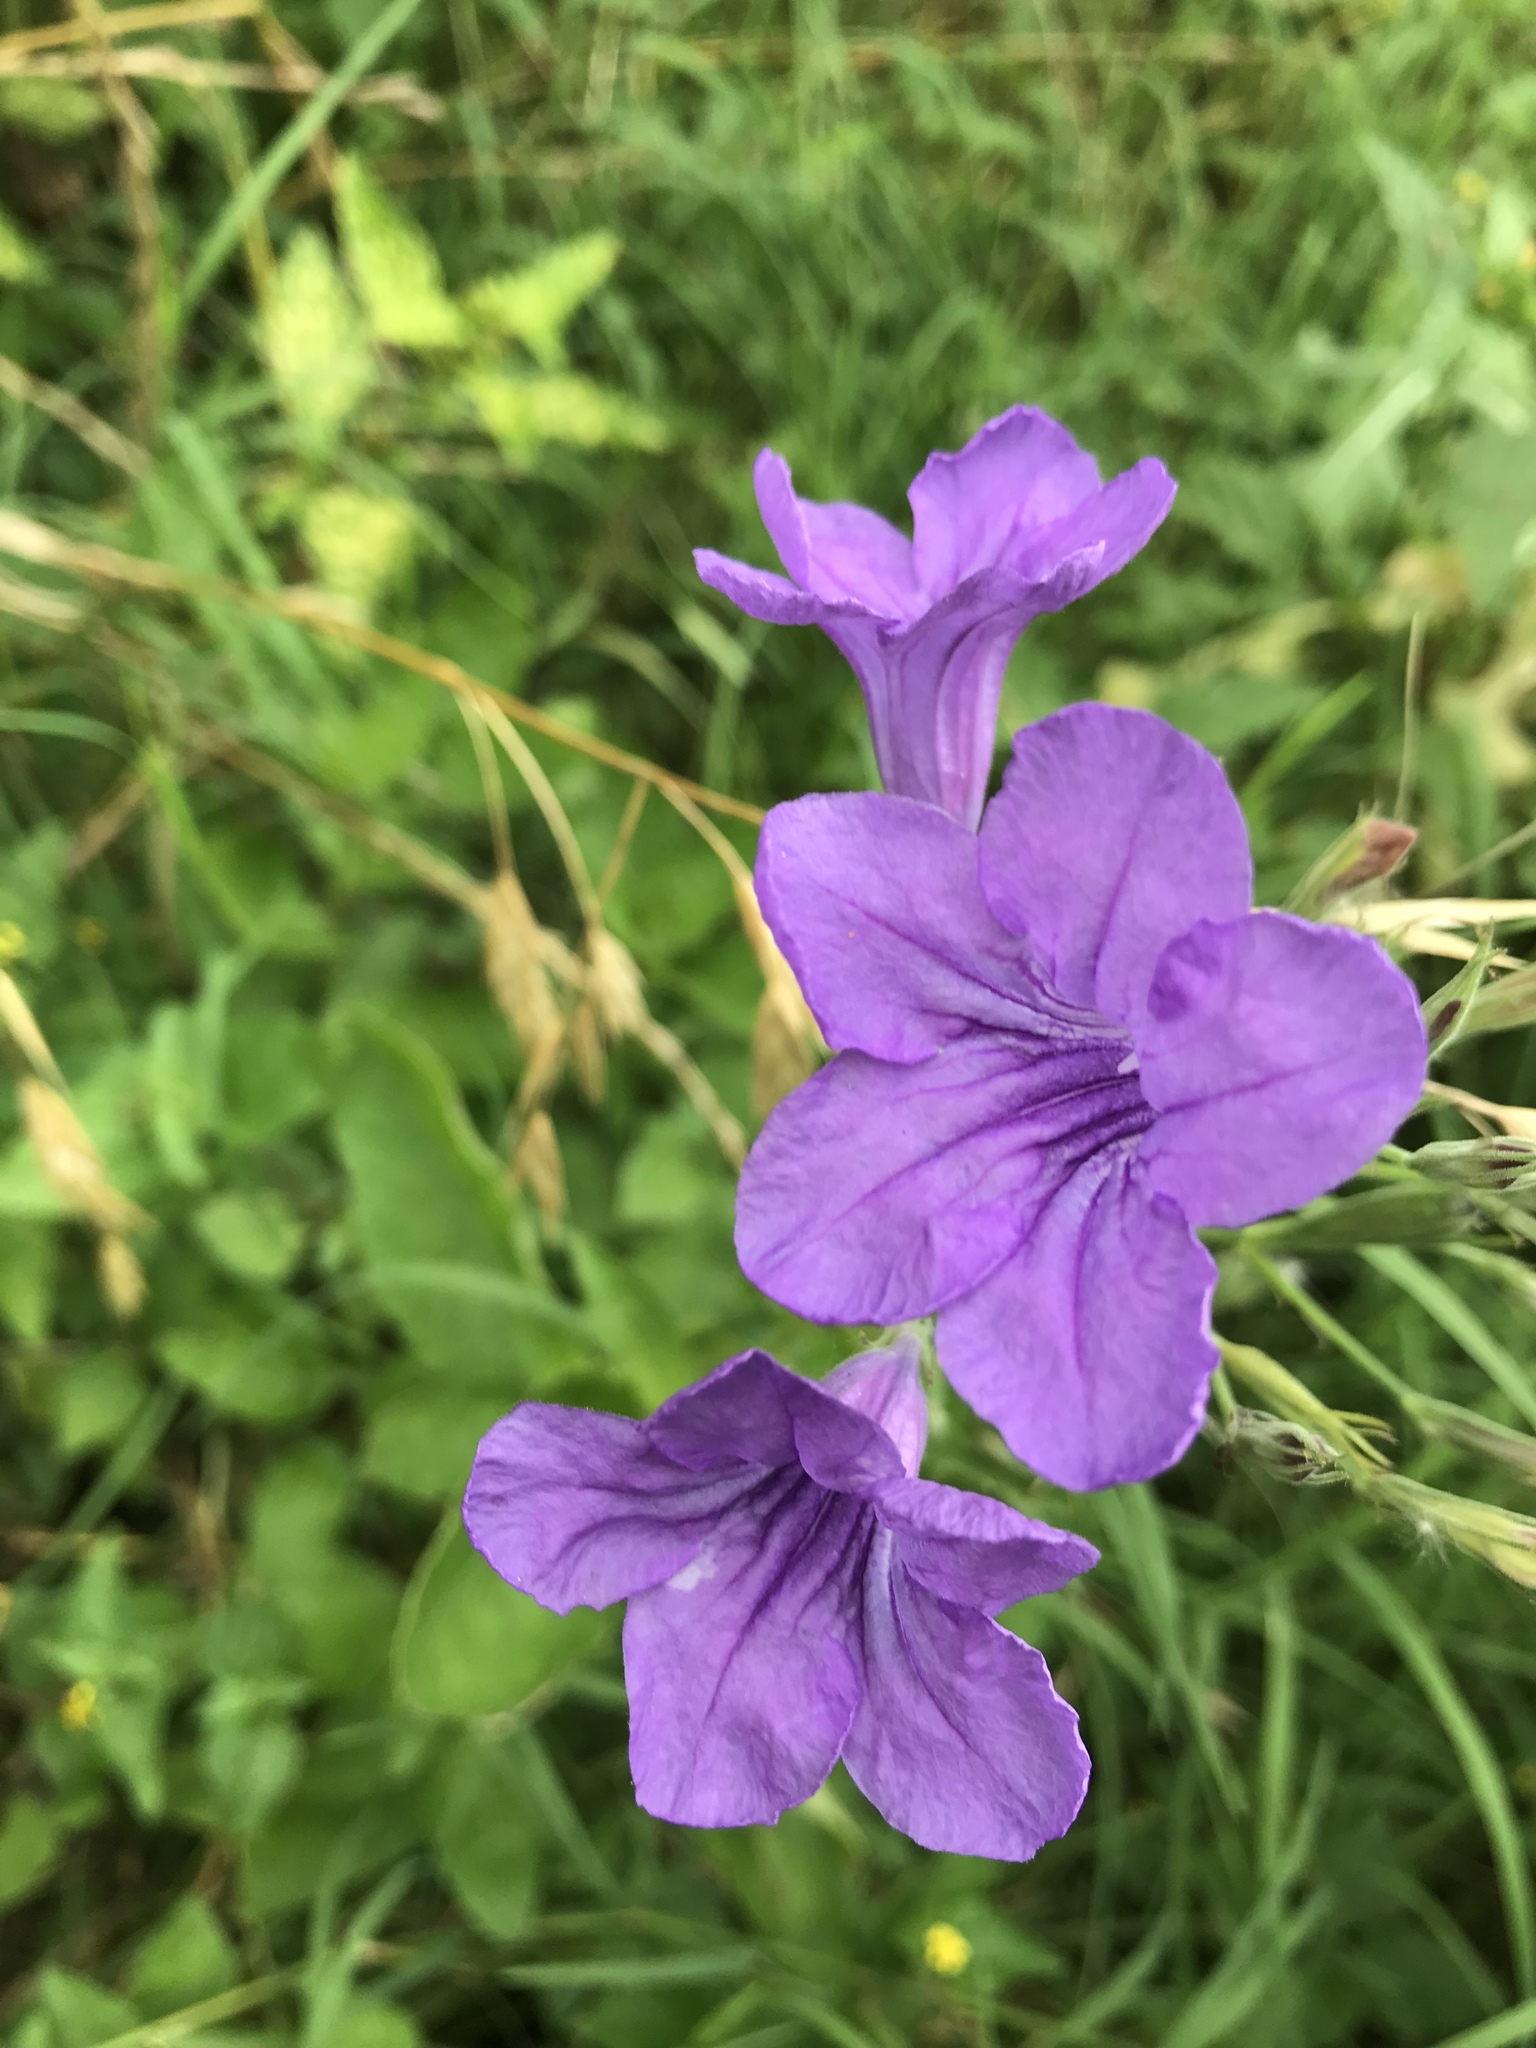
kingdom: Plantae
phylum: Tracheophyta
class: Magnoliopsida
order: Lamiales
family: Acanthaceae
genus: Ruellia
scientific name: Ruellia ciliatiflora
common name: Hairyflower wild petunia
